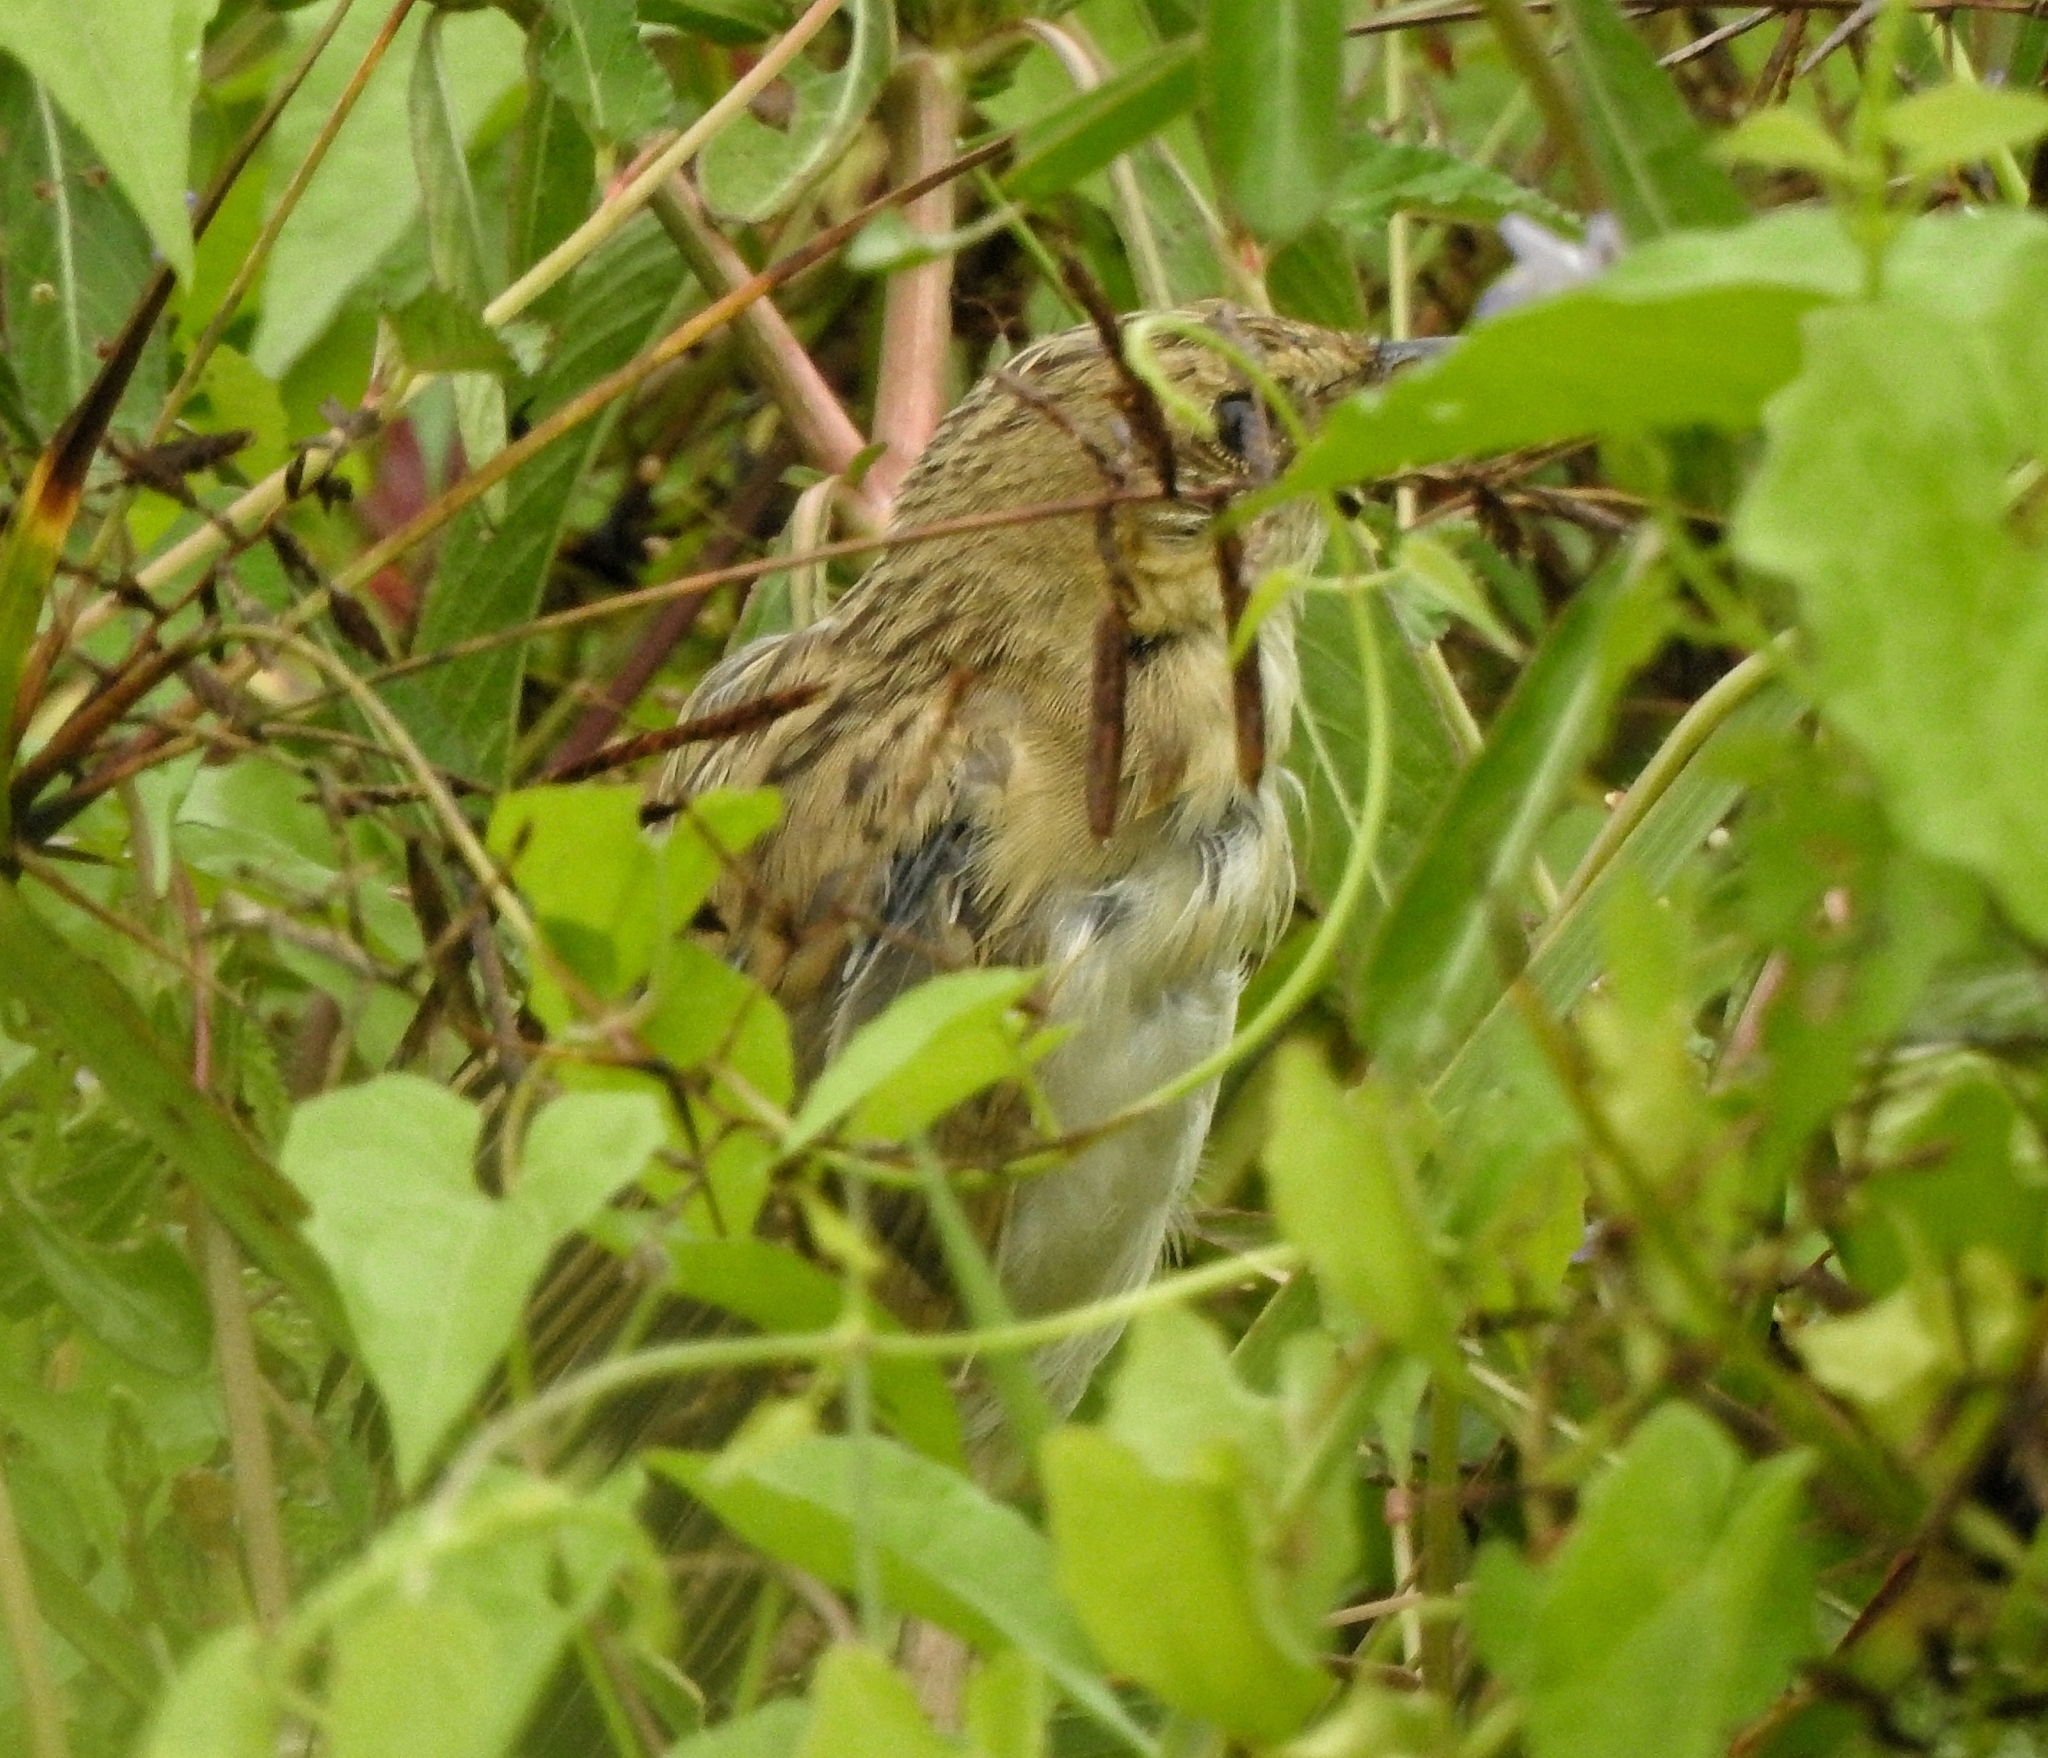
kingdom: Animalia
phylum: Chordata
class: Aves
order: Passeriformes
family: Locustellidae
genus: Chaetornis
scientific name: Chaetornis striata
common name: Bristled grassbird
